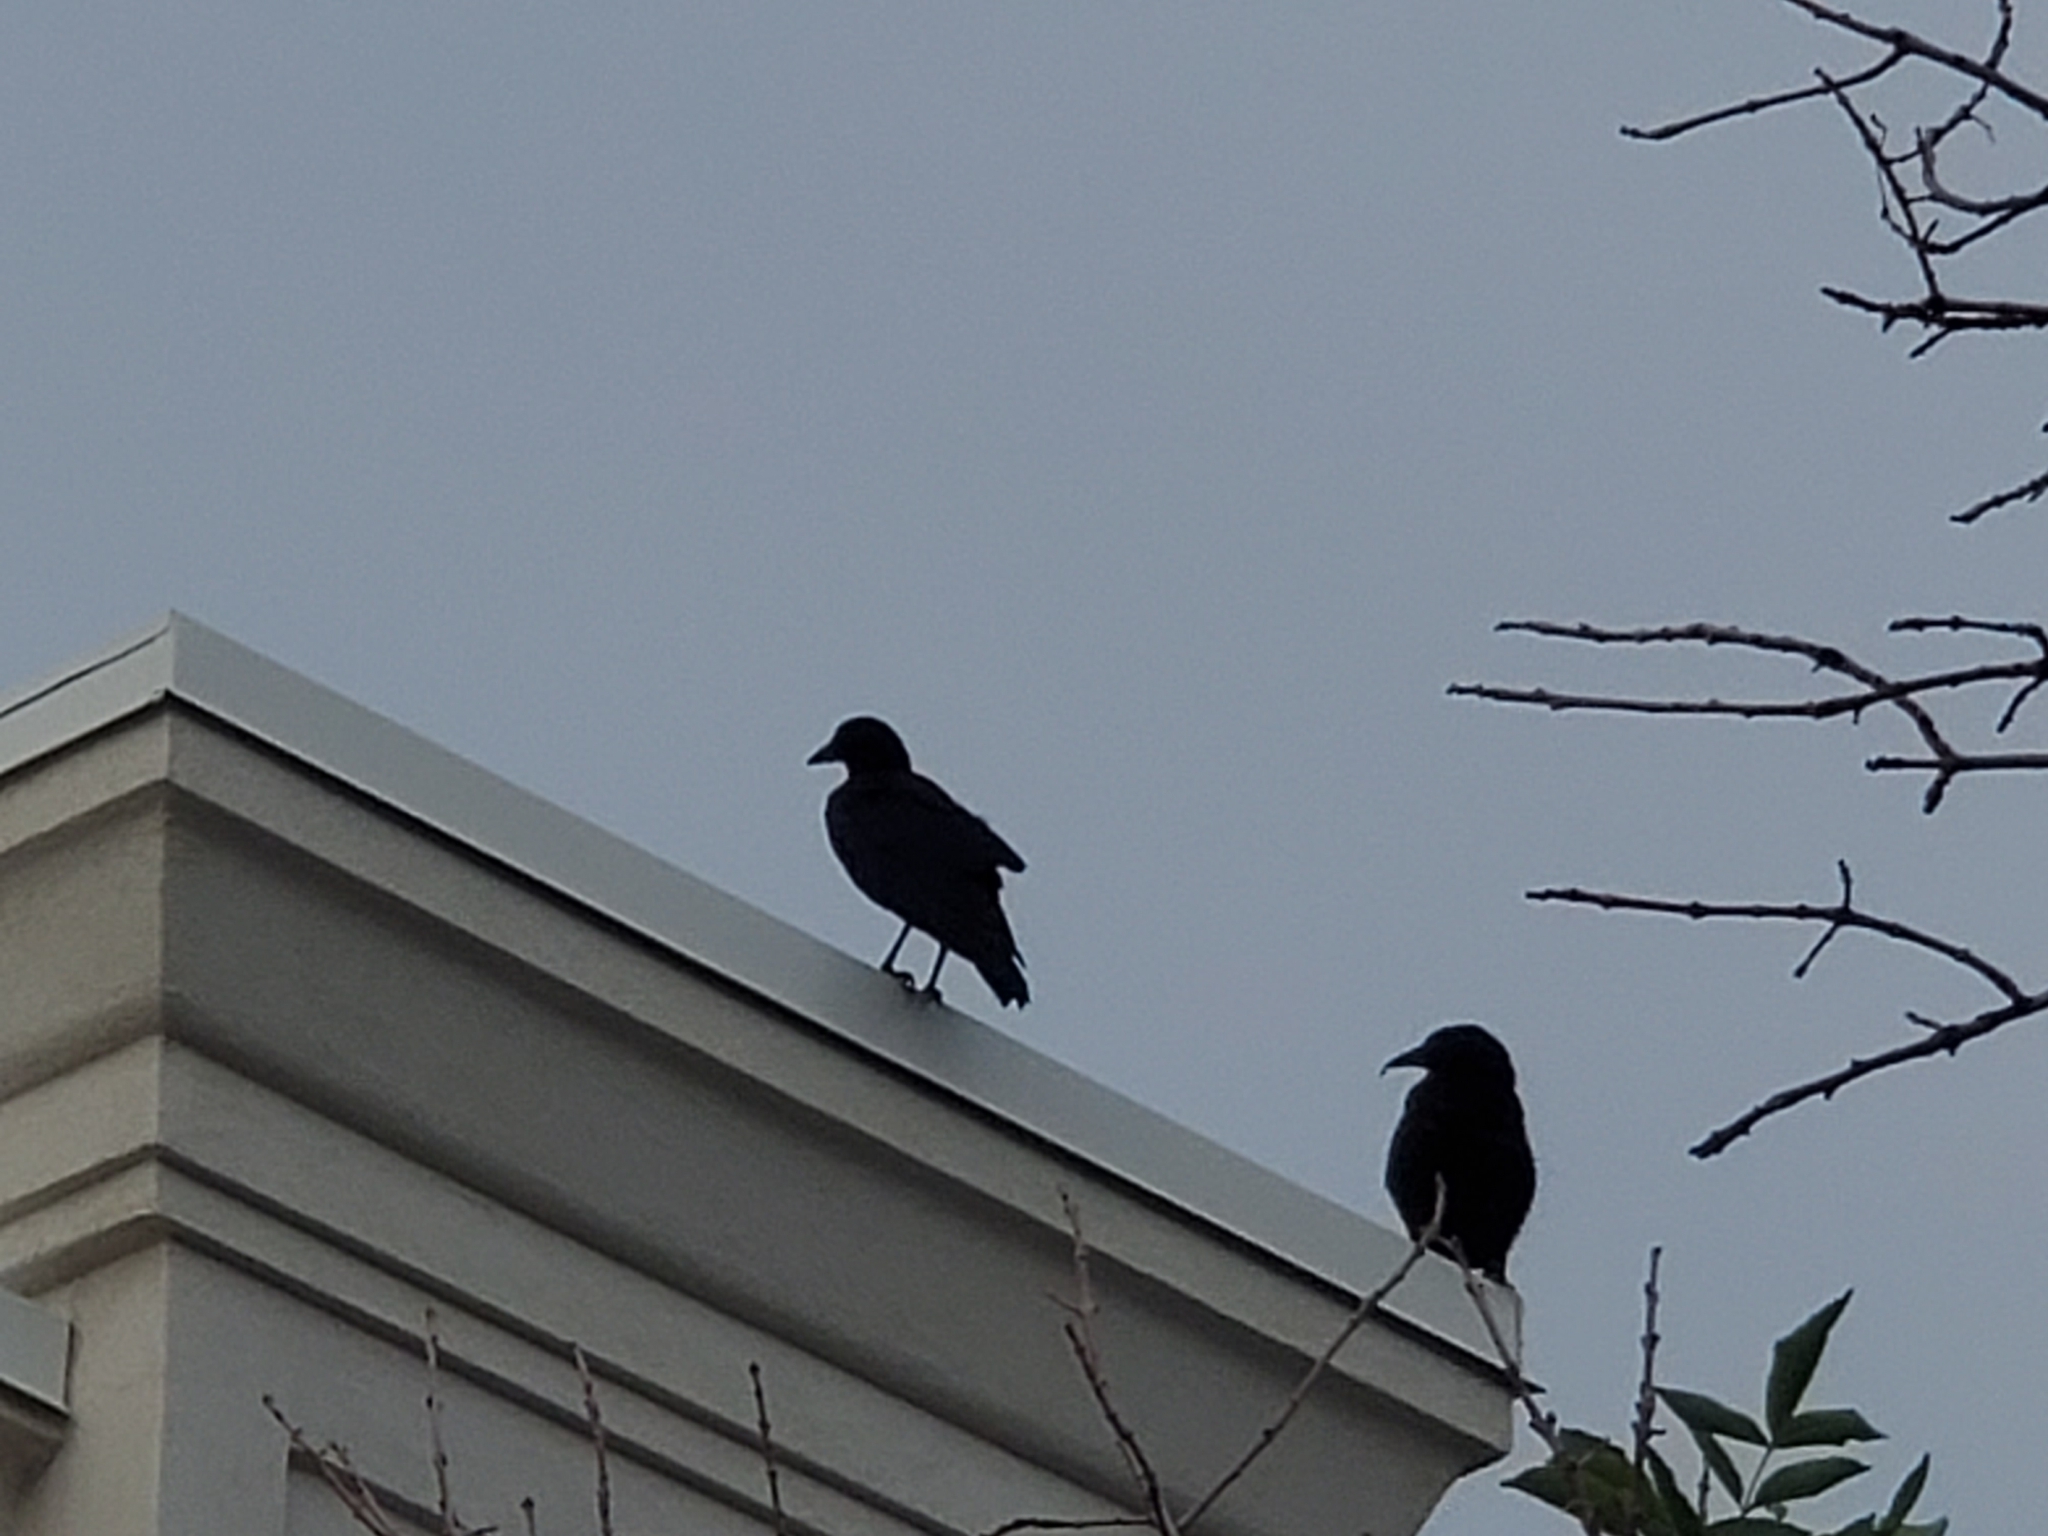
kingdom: Animalia
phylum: Chordata
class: Aves
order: Passeriformes
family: Corvidae
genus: Corvus
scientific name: Corvus brachyrhynchos
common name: American crow
